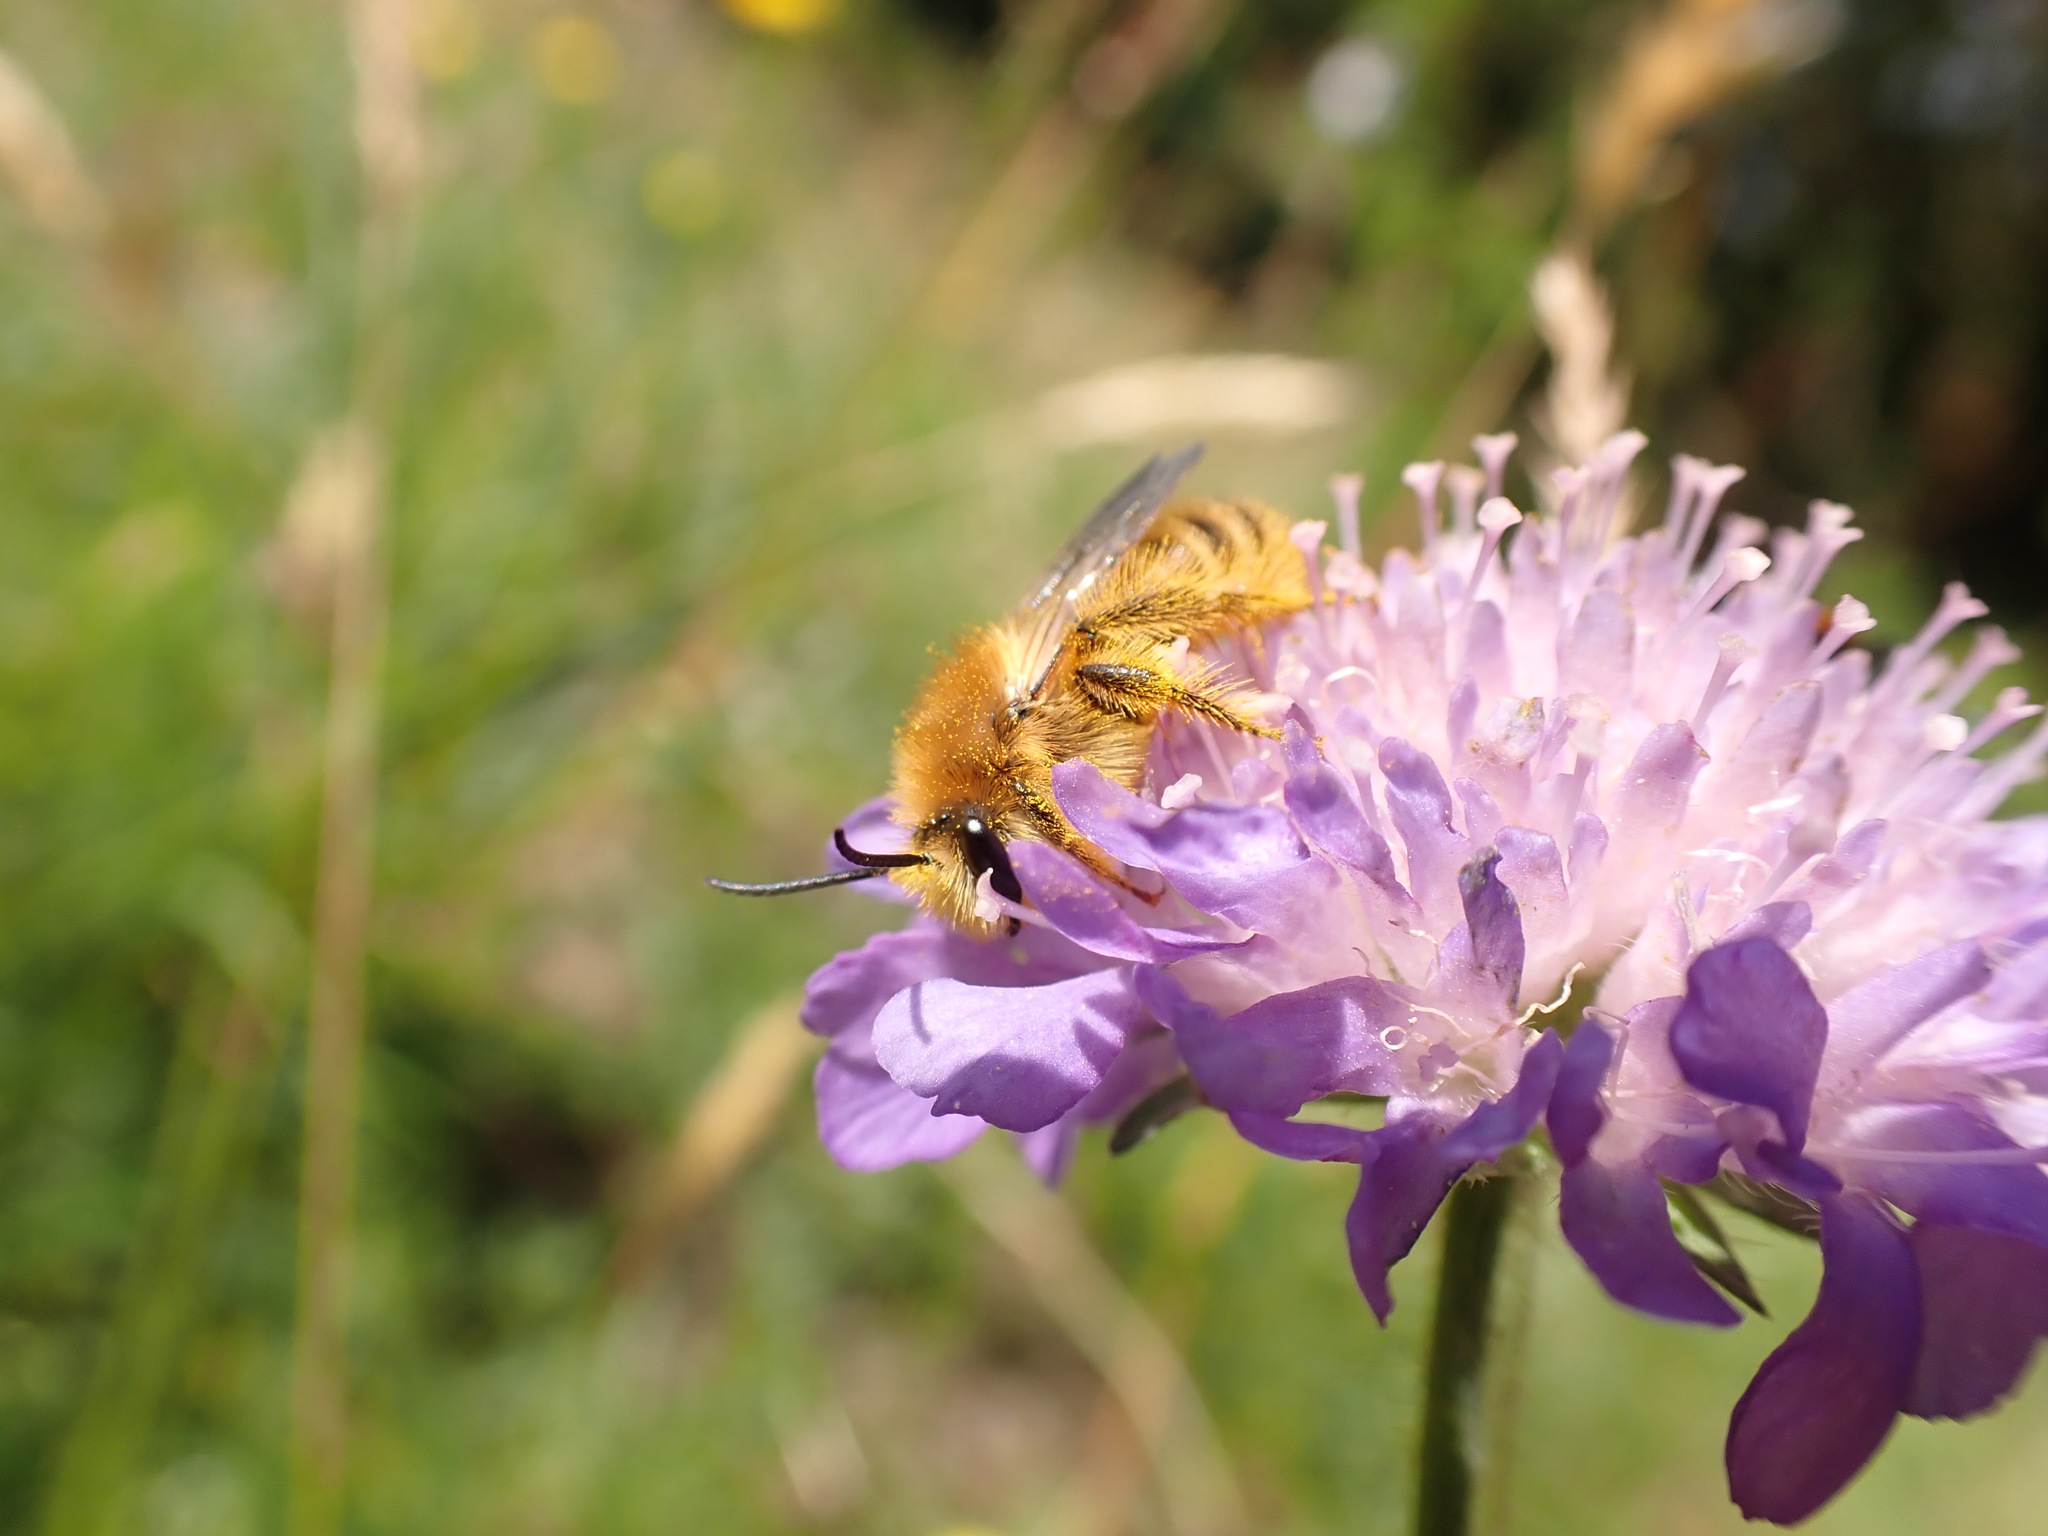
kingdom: Animalia
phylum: Arthropoda
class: Insecta
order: Hymenoptera
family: Melittidae
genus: Dasypoda
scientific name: Dasypoda hirtipes
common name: Pantaloon bee
